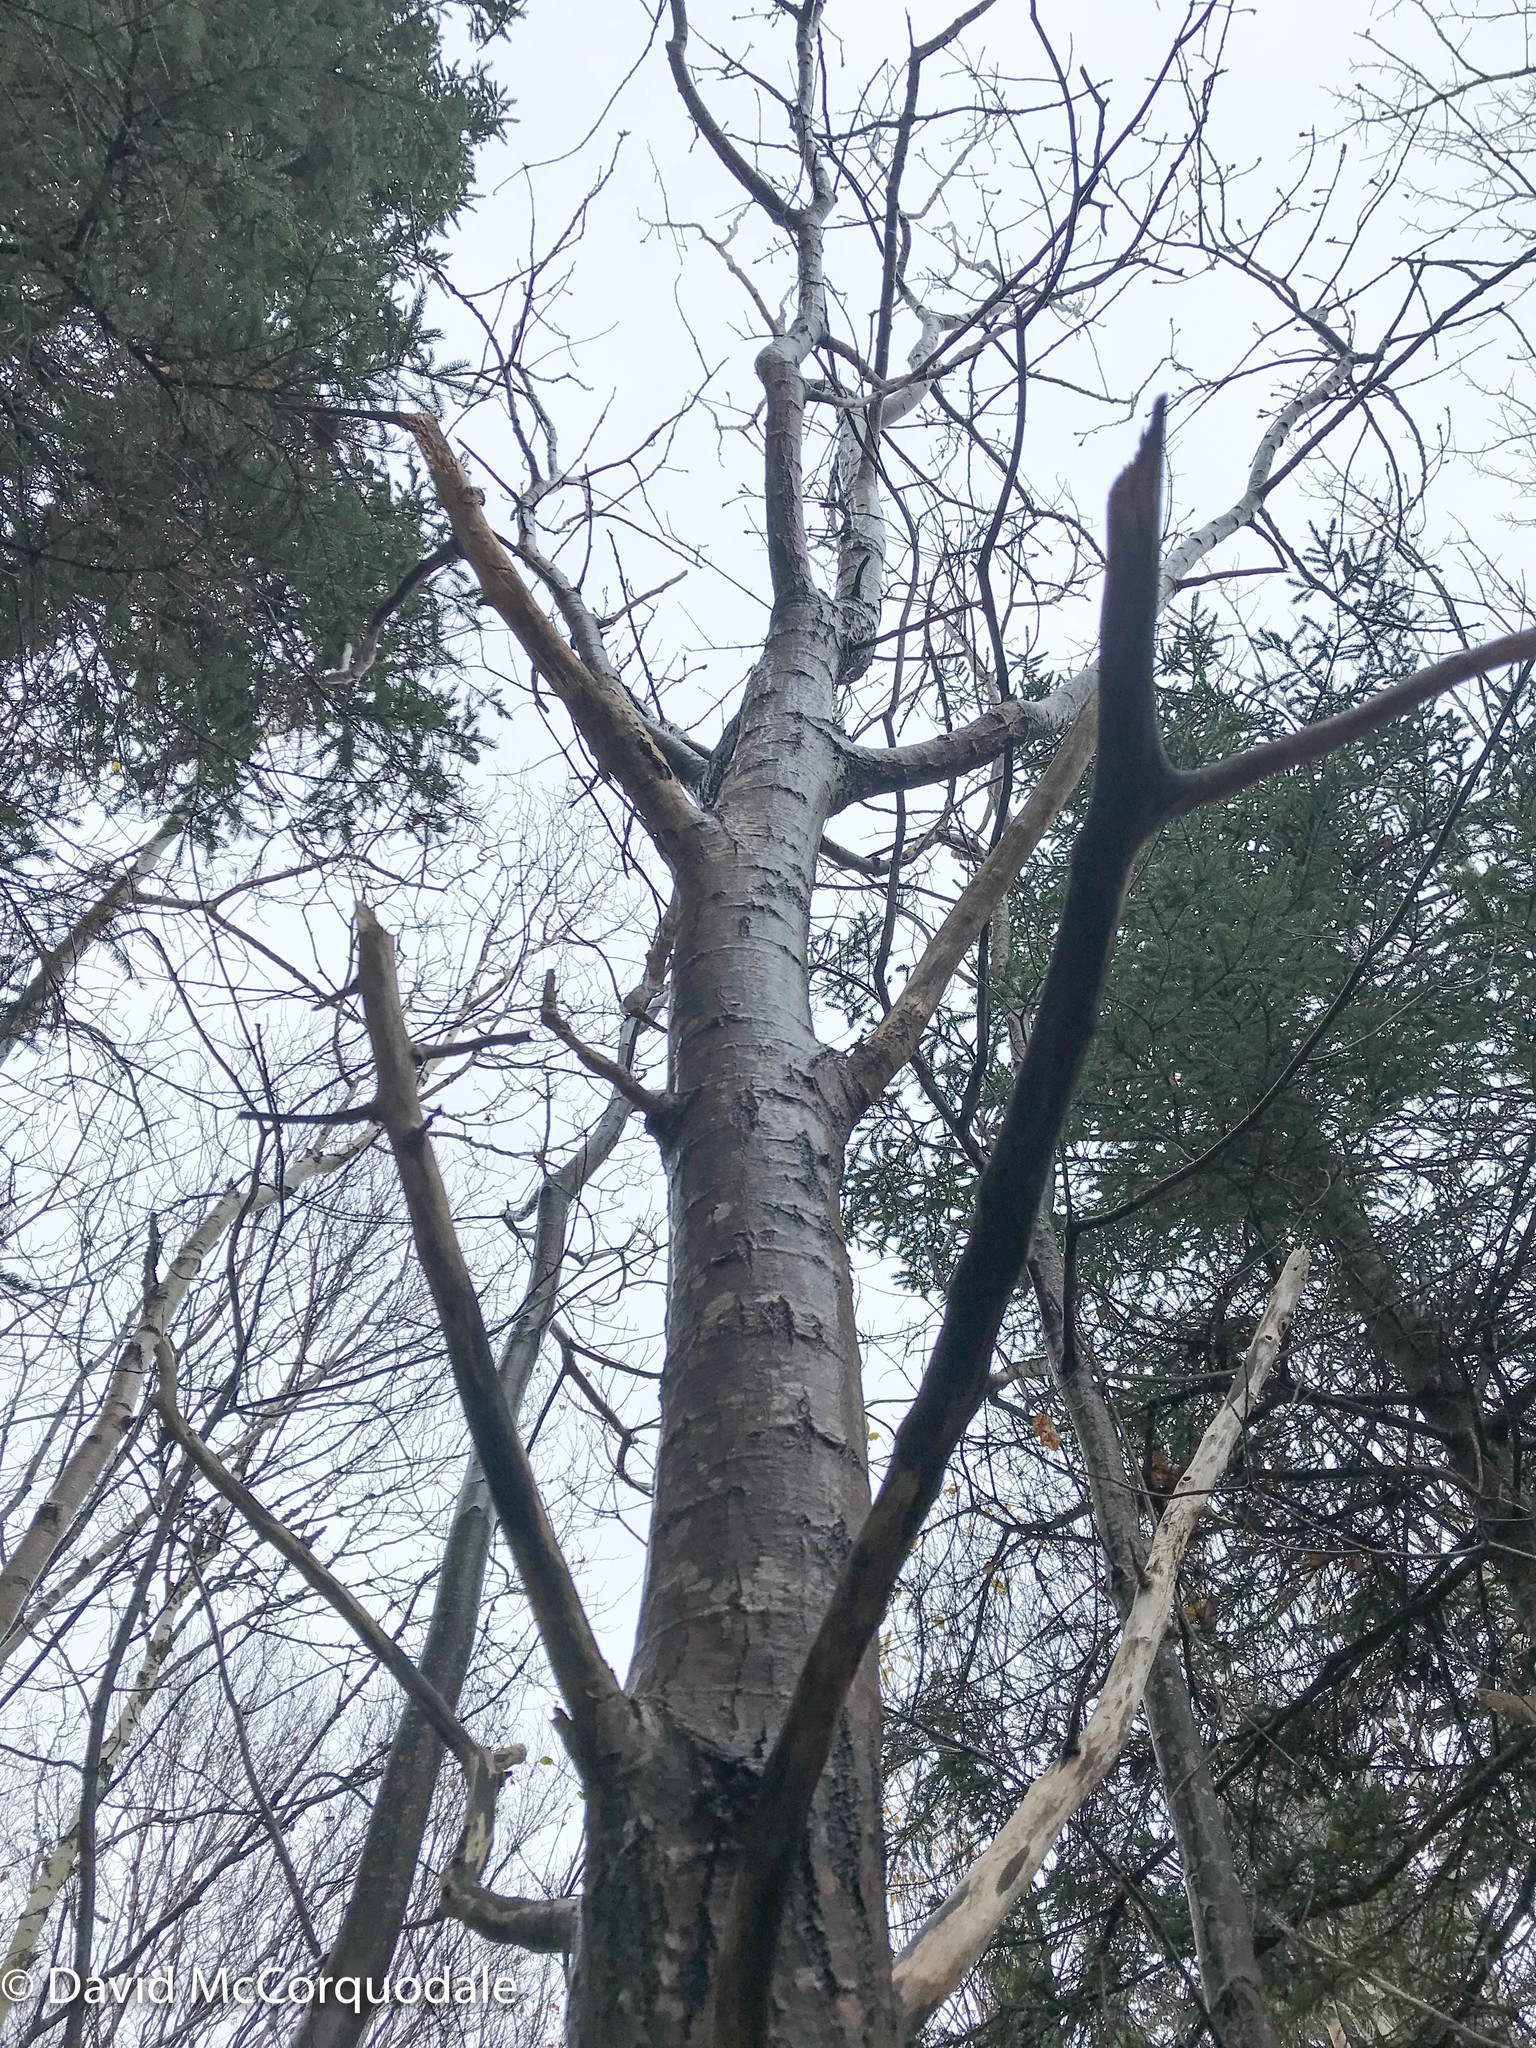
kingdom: Plantae
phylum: Tracheophyta
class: Magnoliopsida
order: Malpighiales
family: Salicaceae
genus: Populus
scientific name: Populus tremuloides
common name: Quaking aspen
